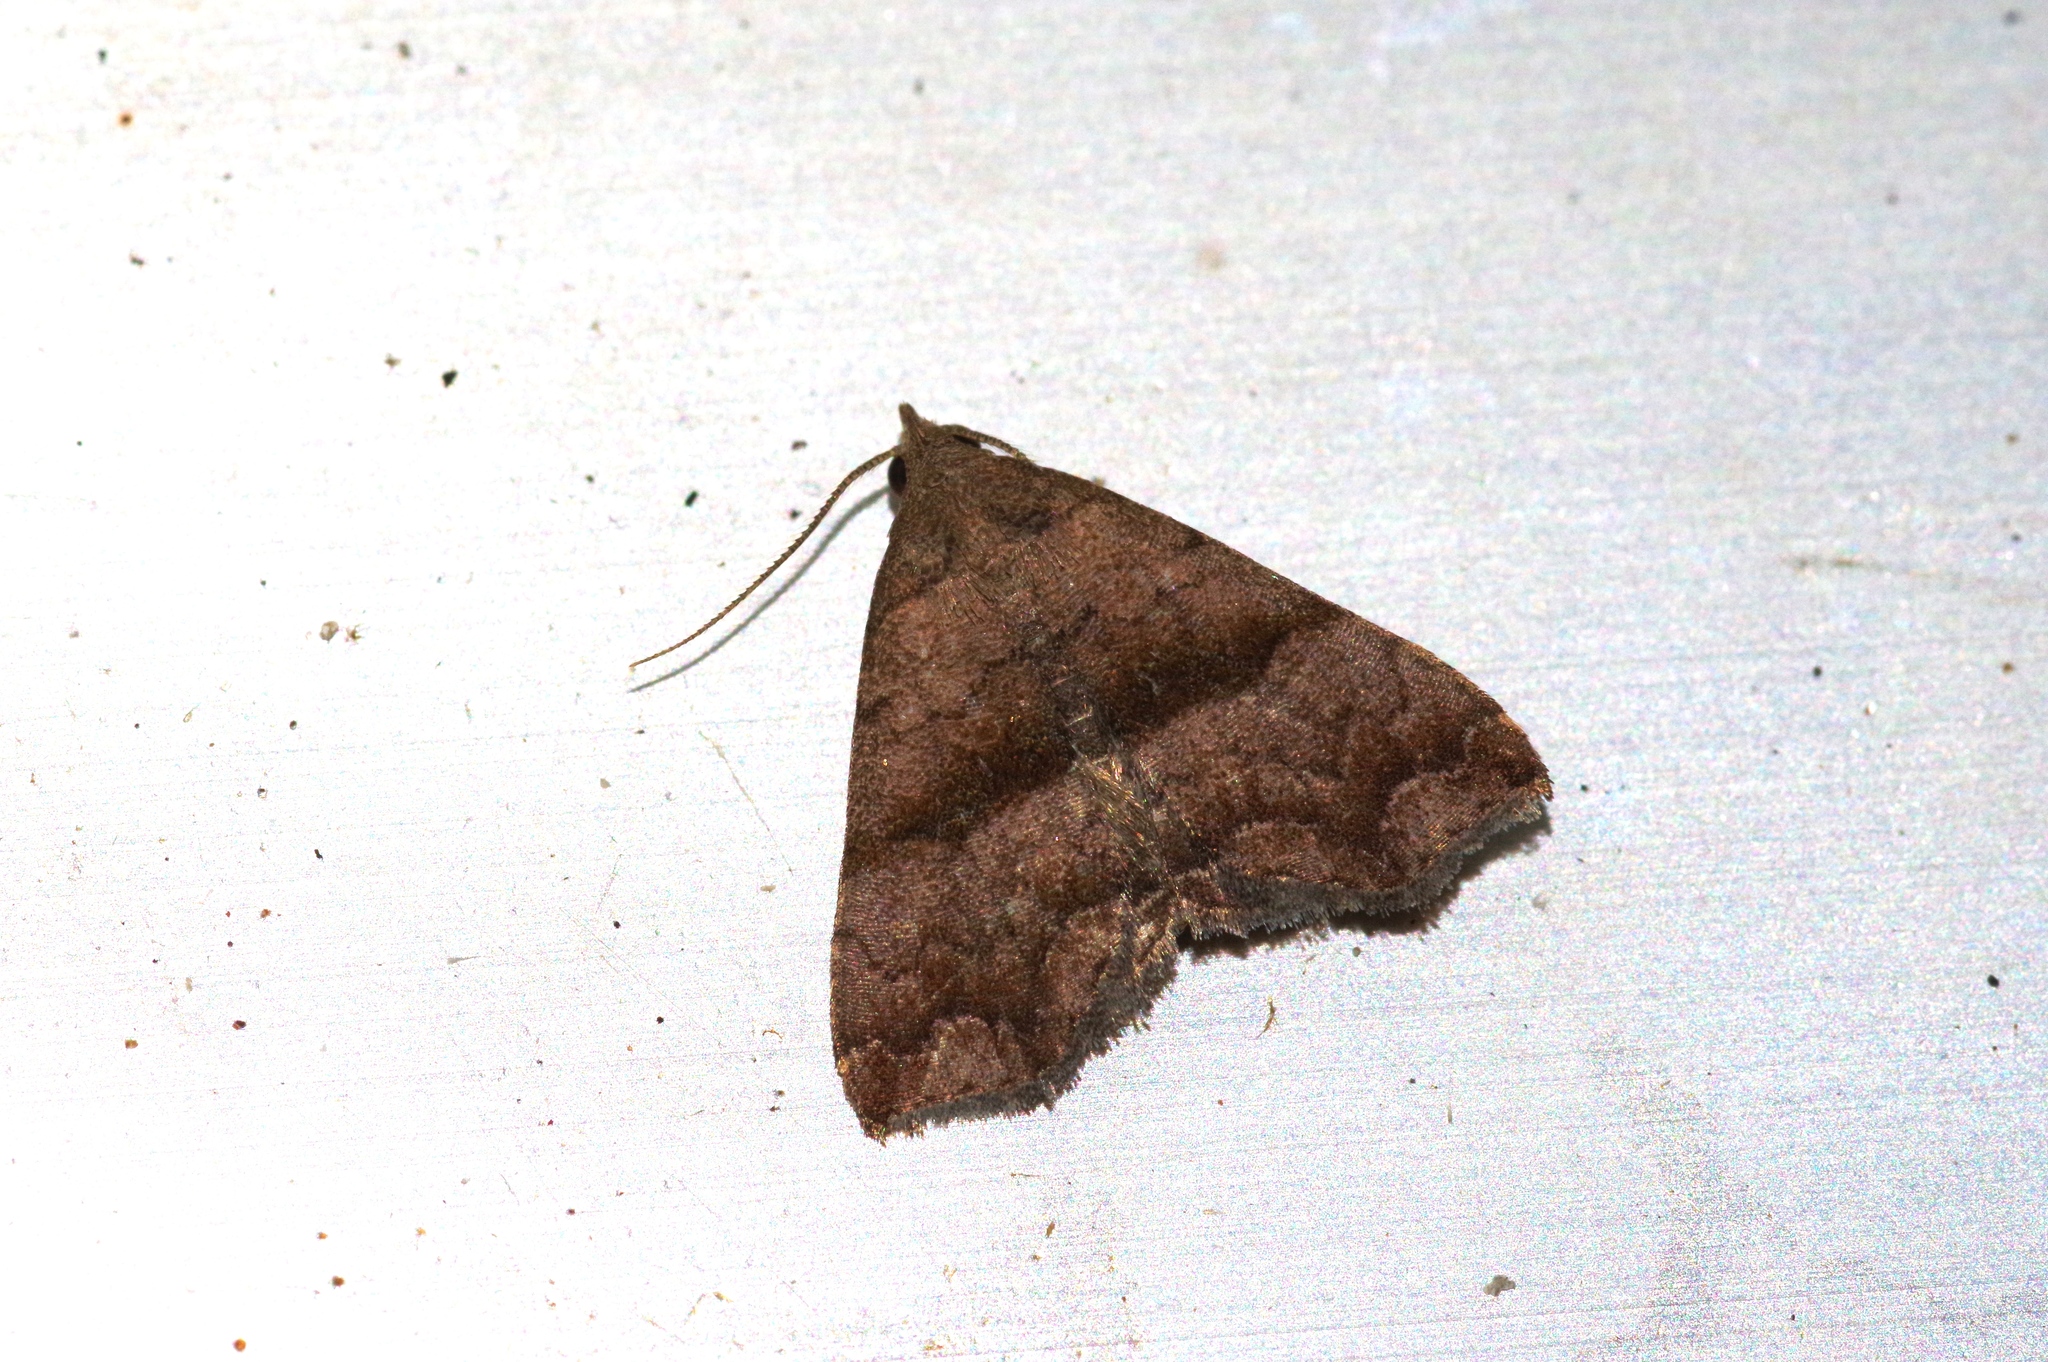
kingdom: Animalia
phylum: Arthropoda
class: Insecta
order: Lepidoptera
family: Erebidae
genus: Polypogon
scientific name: Polypogon Hipoepa fractalis
